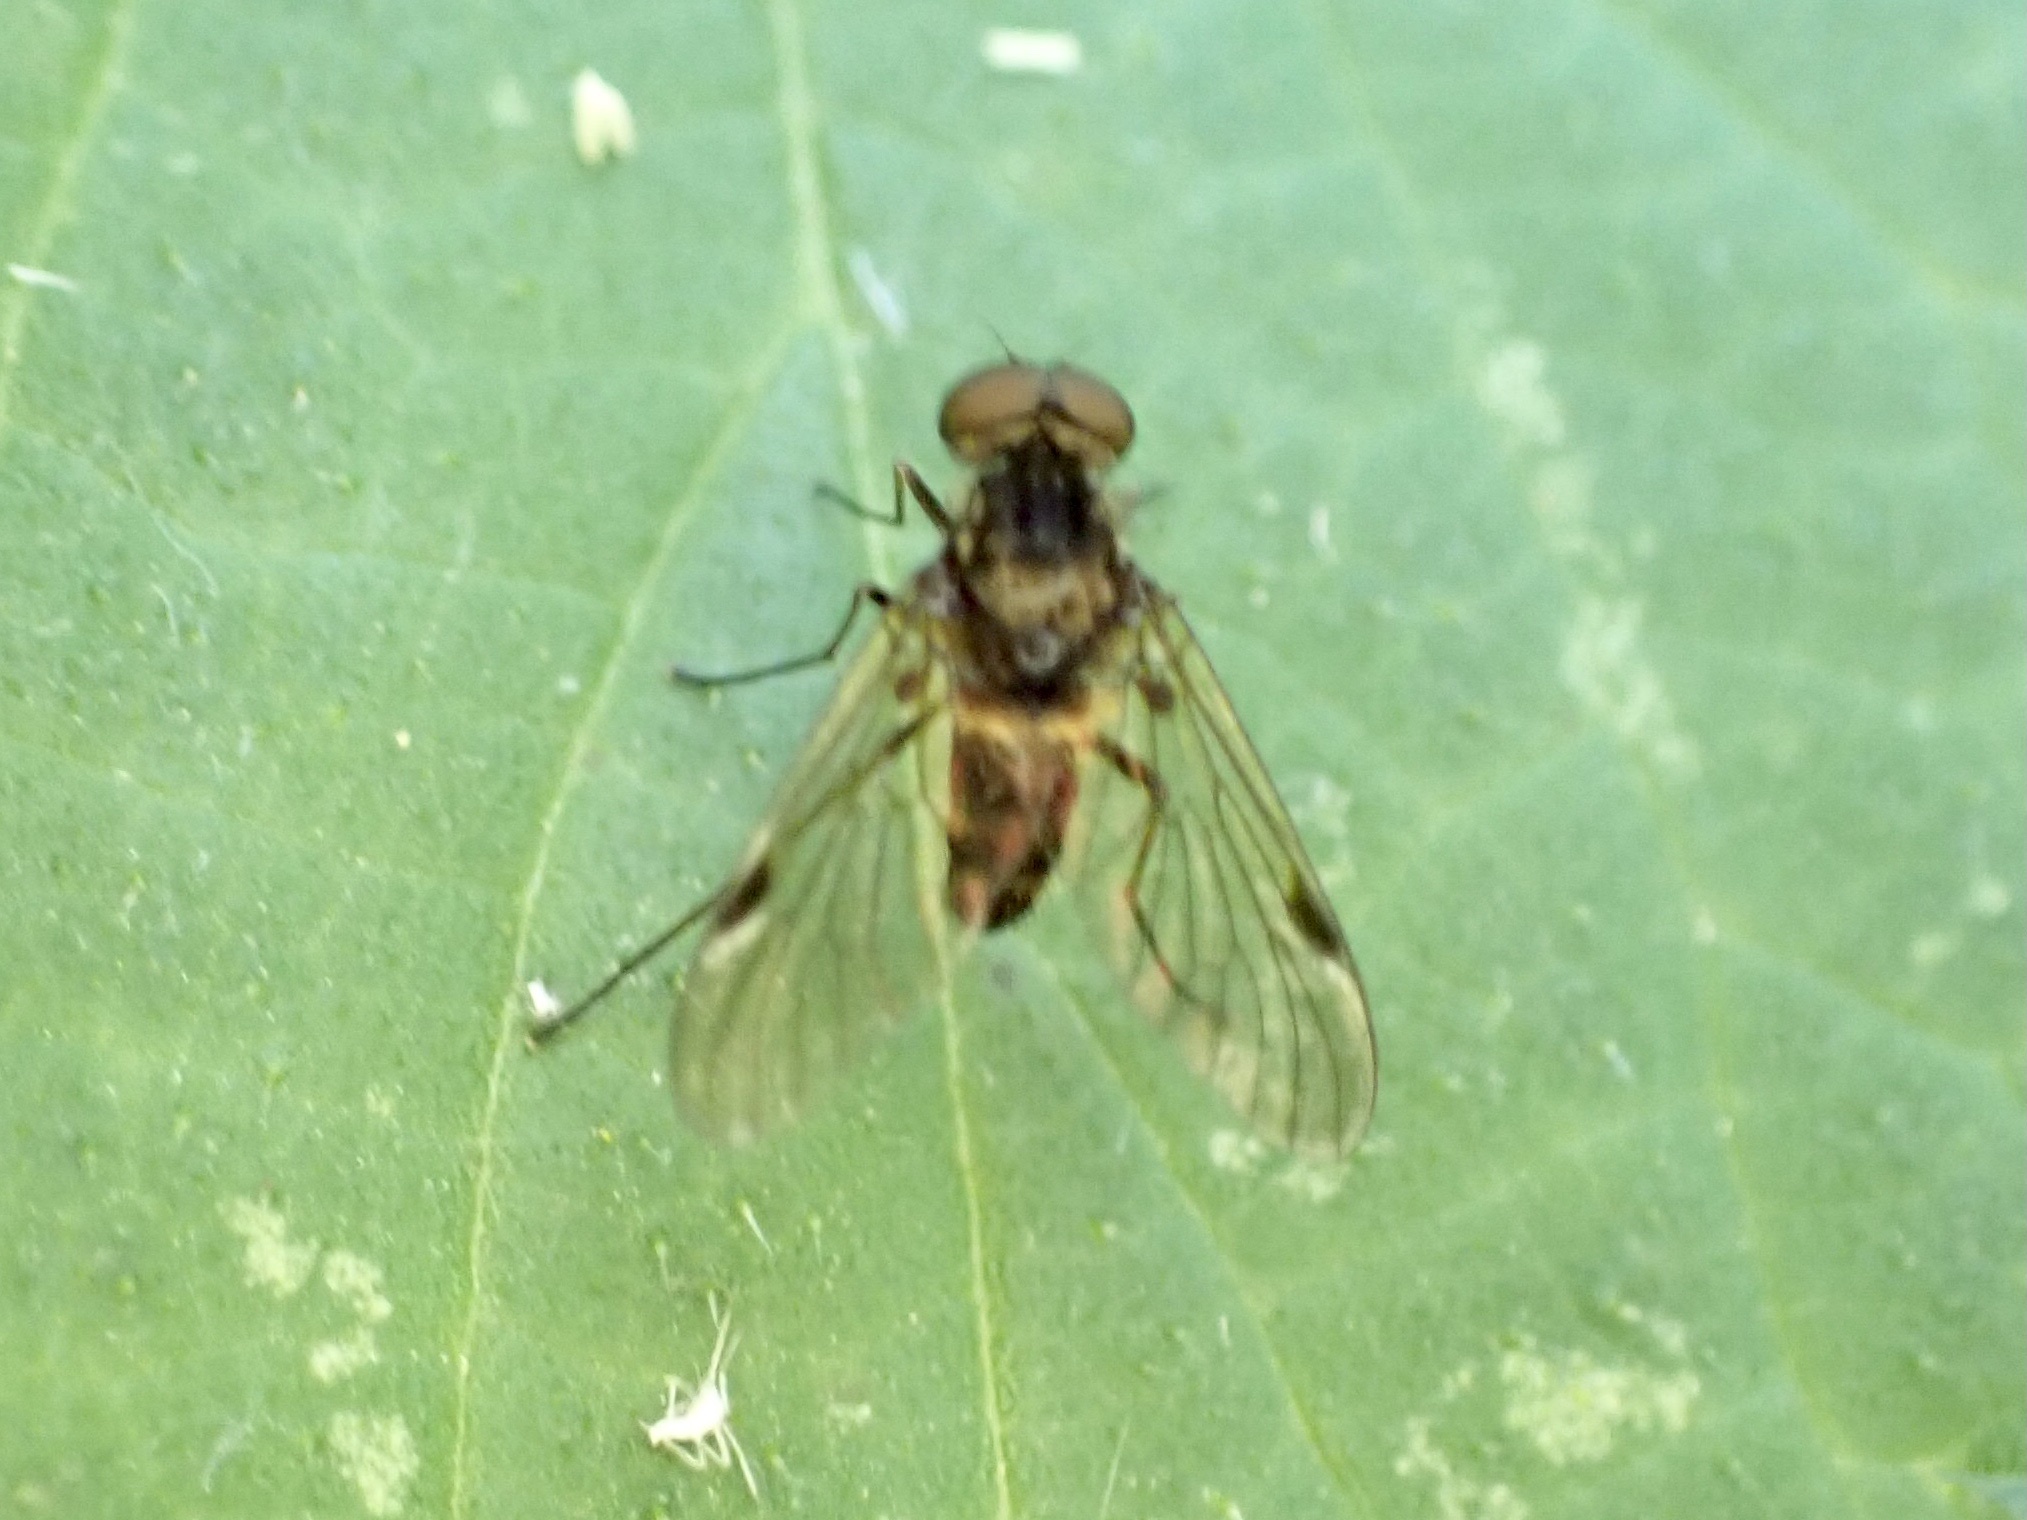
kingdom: Animalia
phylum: Arthropoda
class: Insecta
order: Diptera
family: Rhagionidae
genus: Chrysopilus
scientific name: Chrysopilus cristatus
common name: Black snipefly
